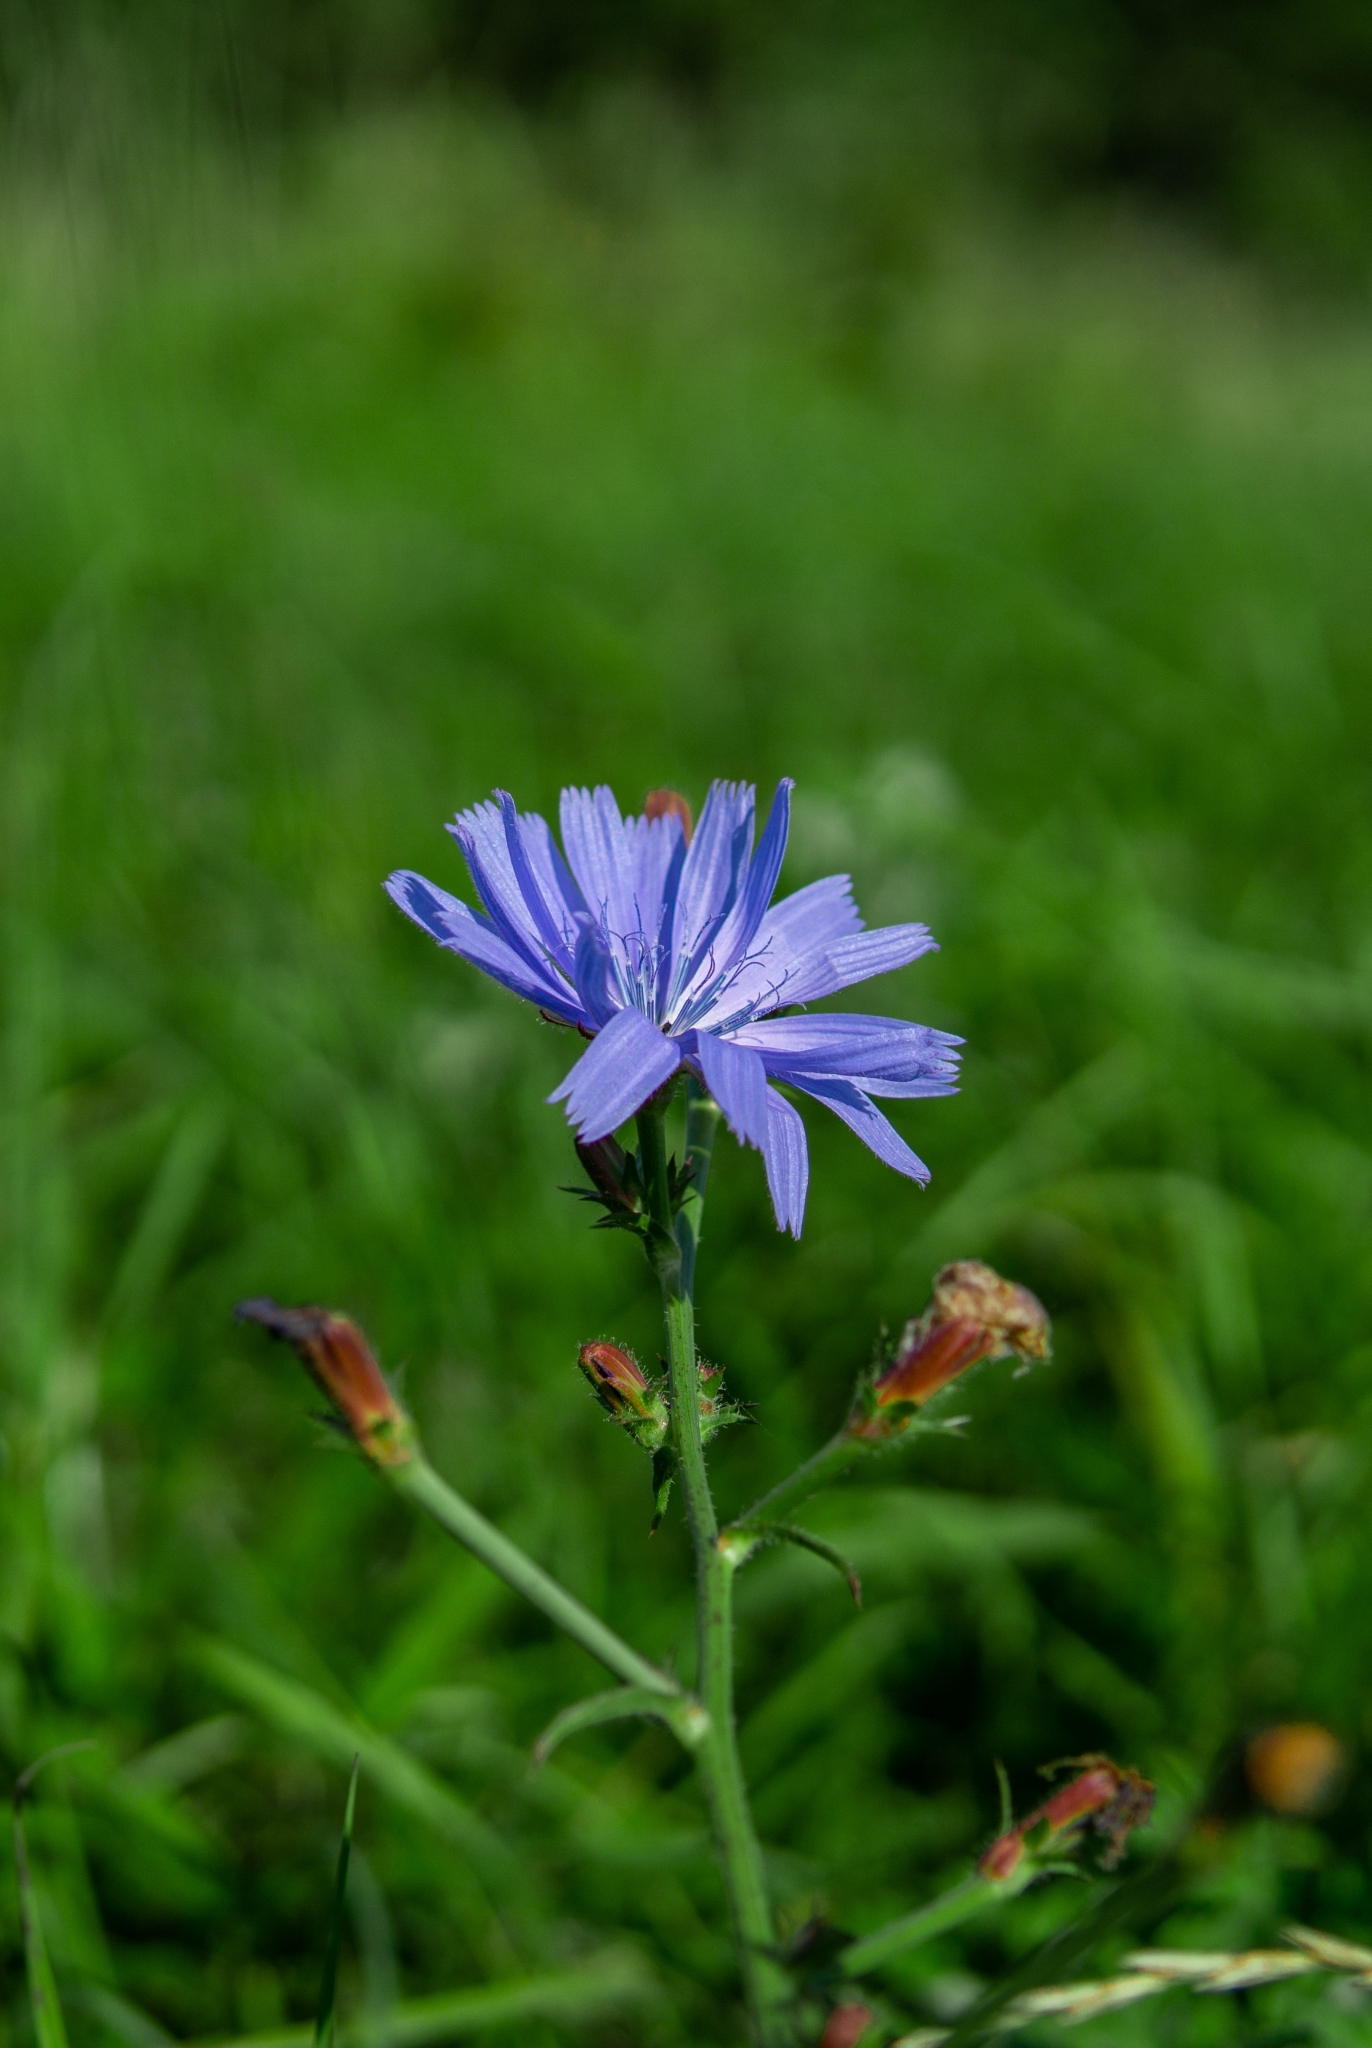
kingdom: Plantae
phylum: Tracheophyta
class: Magnoliopsida
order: Asterales
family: Asteraceae
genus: Cichorium
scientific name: Cichorium intybus
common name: Chicory
